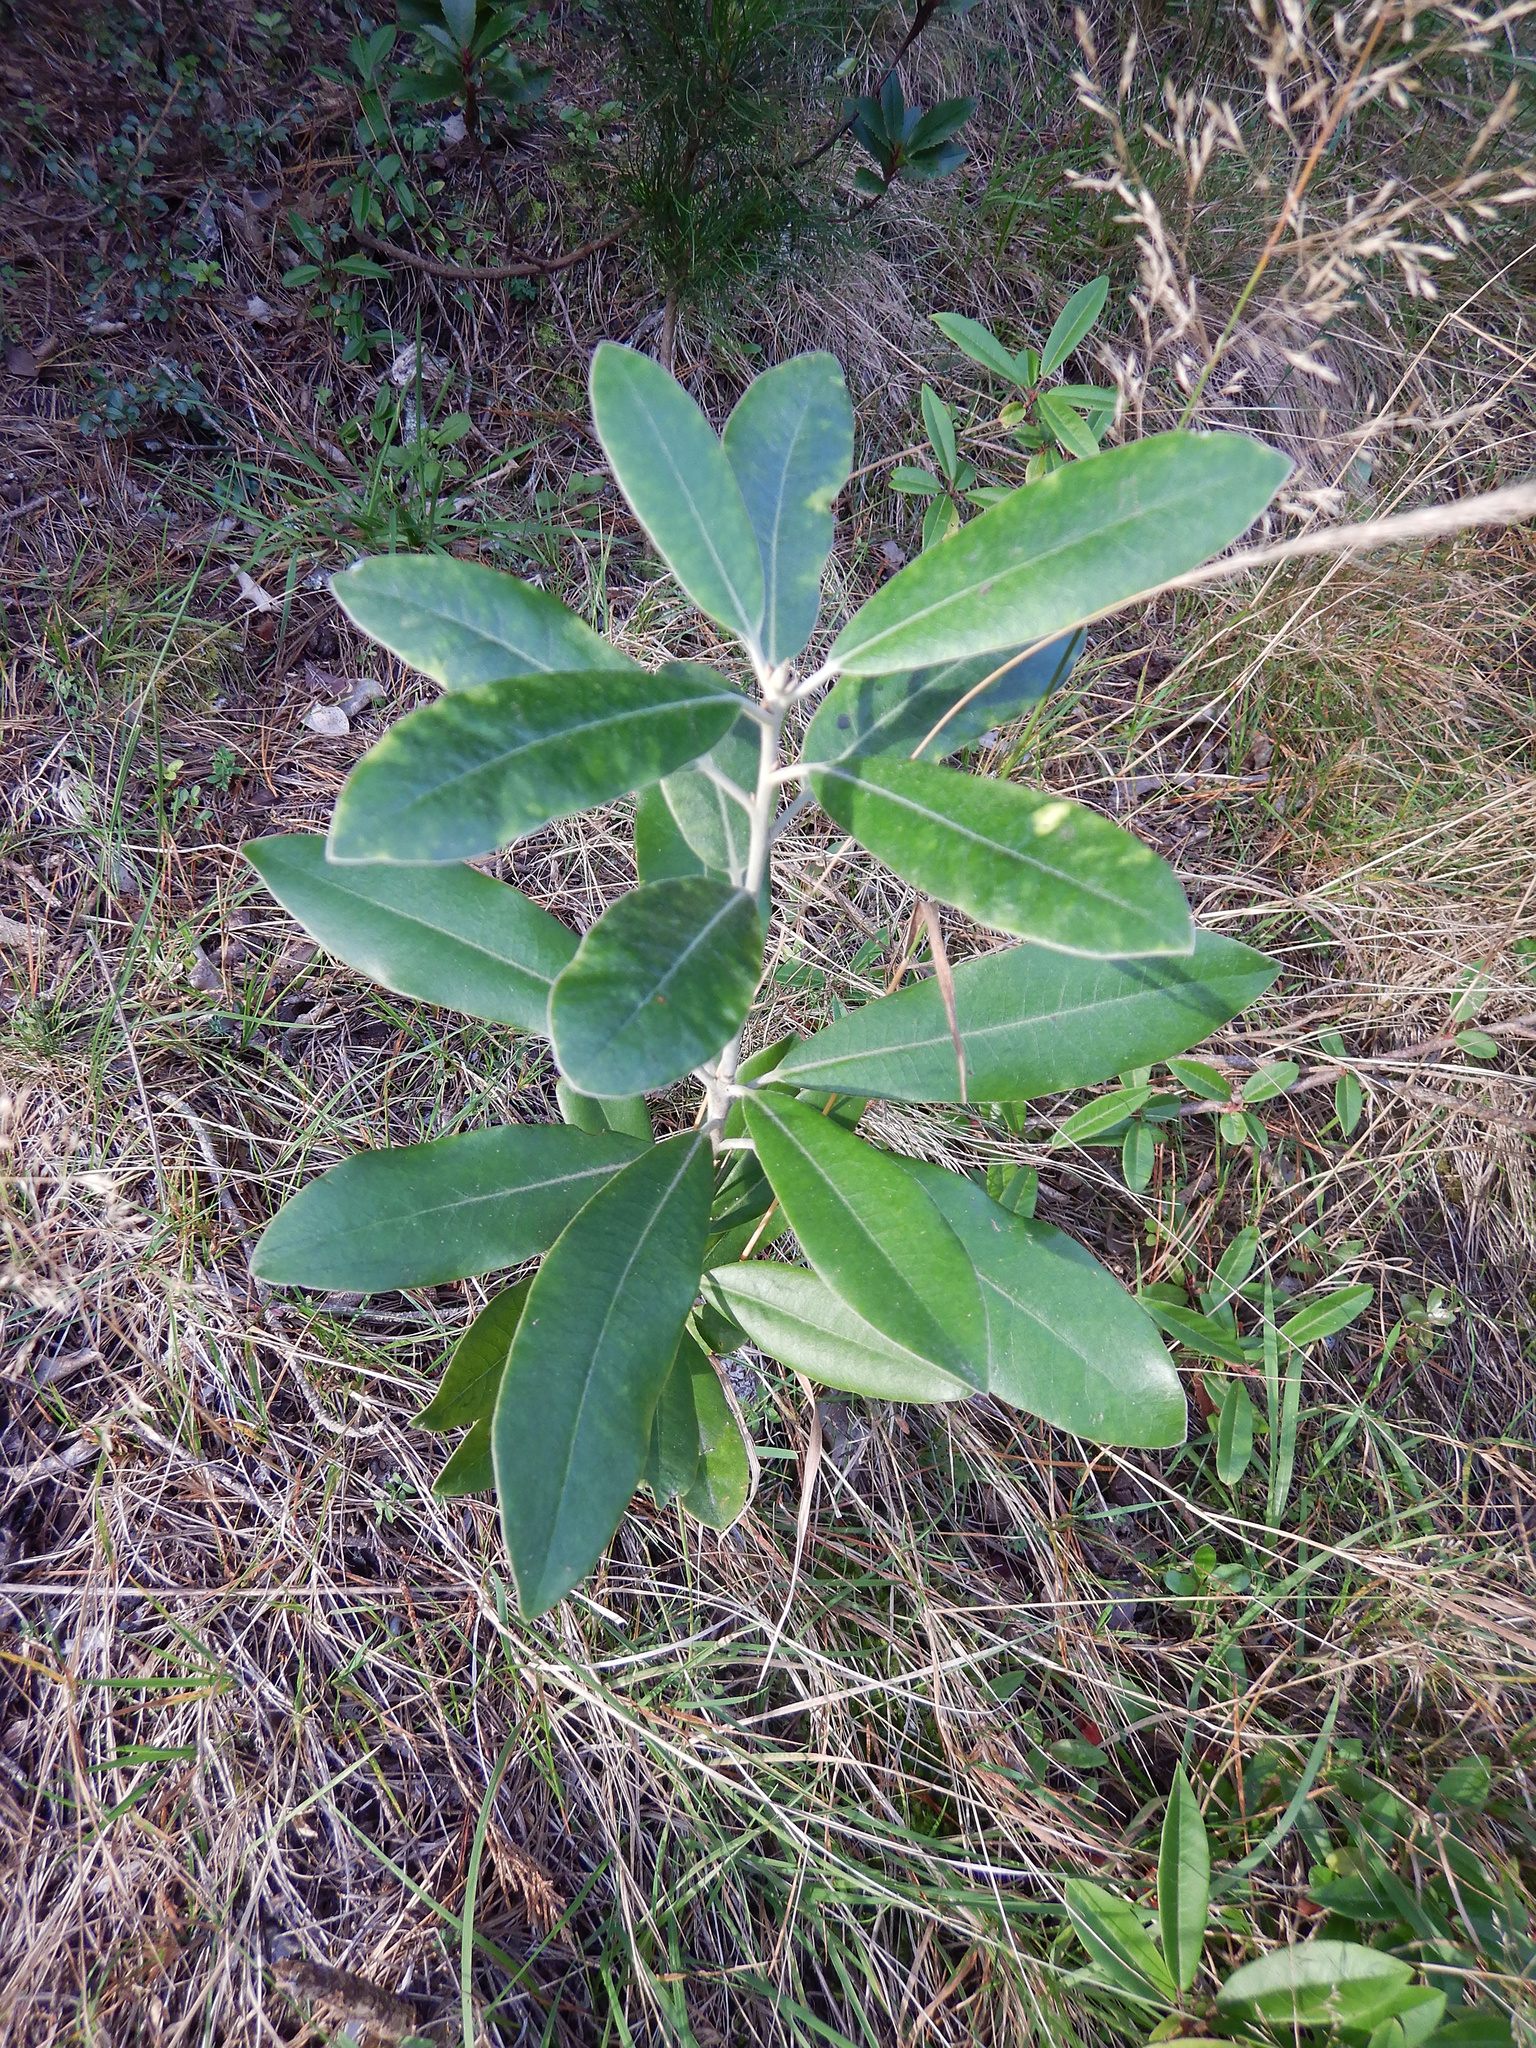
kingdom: Plantae
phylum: Tracheophyta
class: Magnoliopsida
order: Apiales
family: Pittosporaceae
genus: Pittosporum
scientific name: Pittosporum ralphii
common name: Ralph's desertwillow
